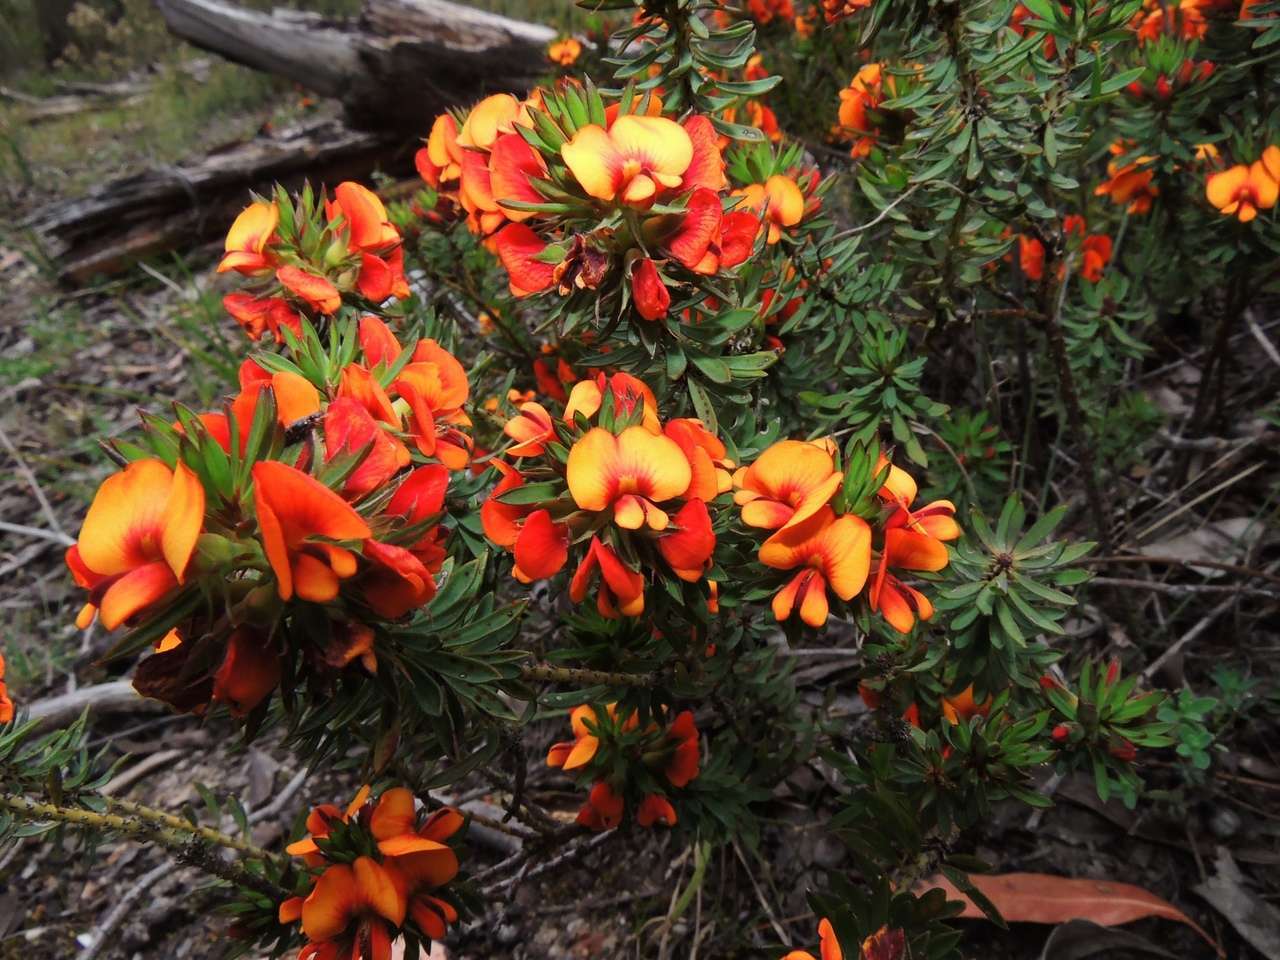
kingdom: Plantae
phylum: Tracheophyta
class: Magnoliopsida
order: Fabales
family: Fabaceae
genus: Pultenaea
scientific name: Pultenaea humilis
